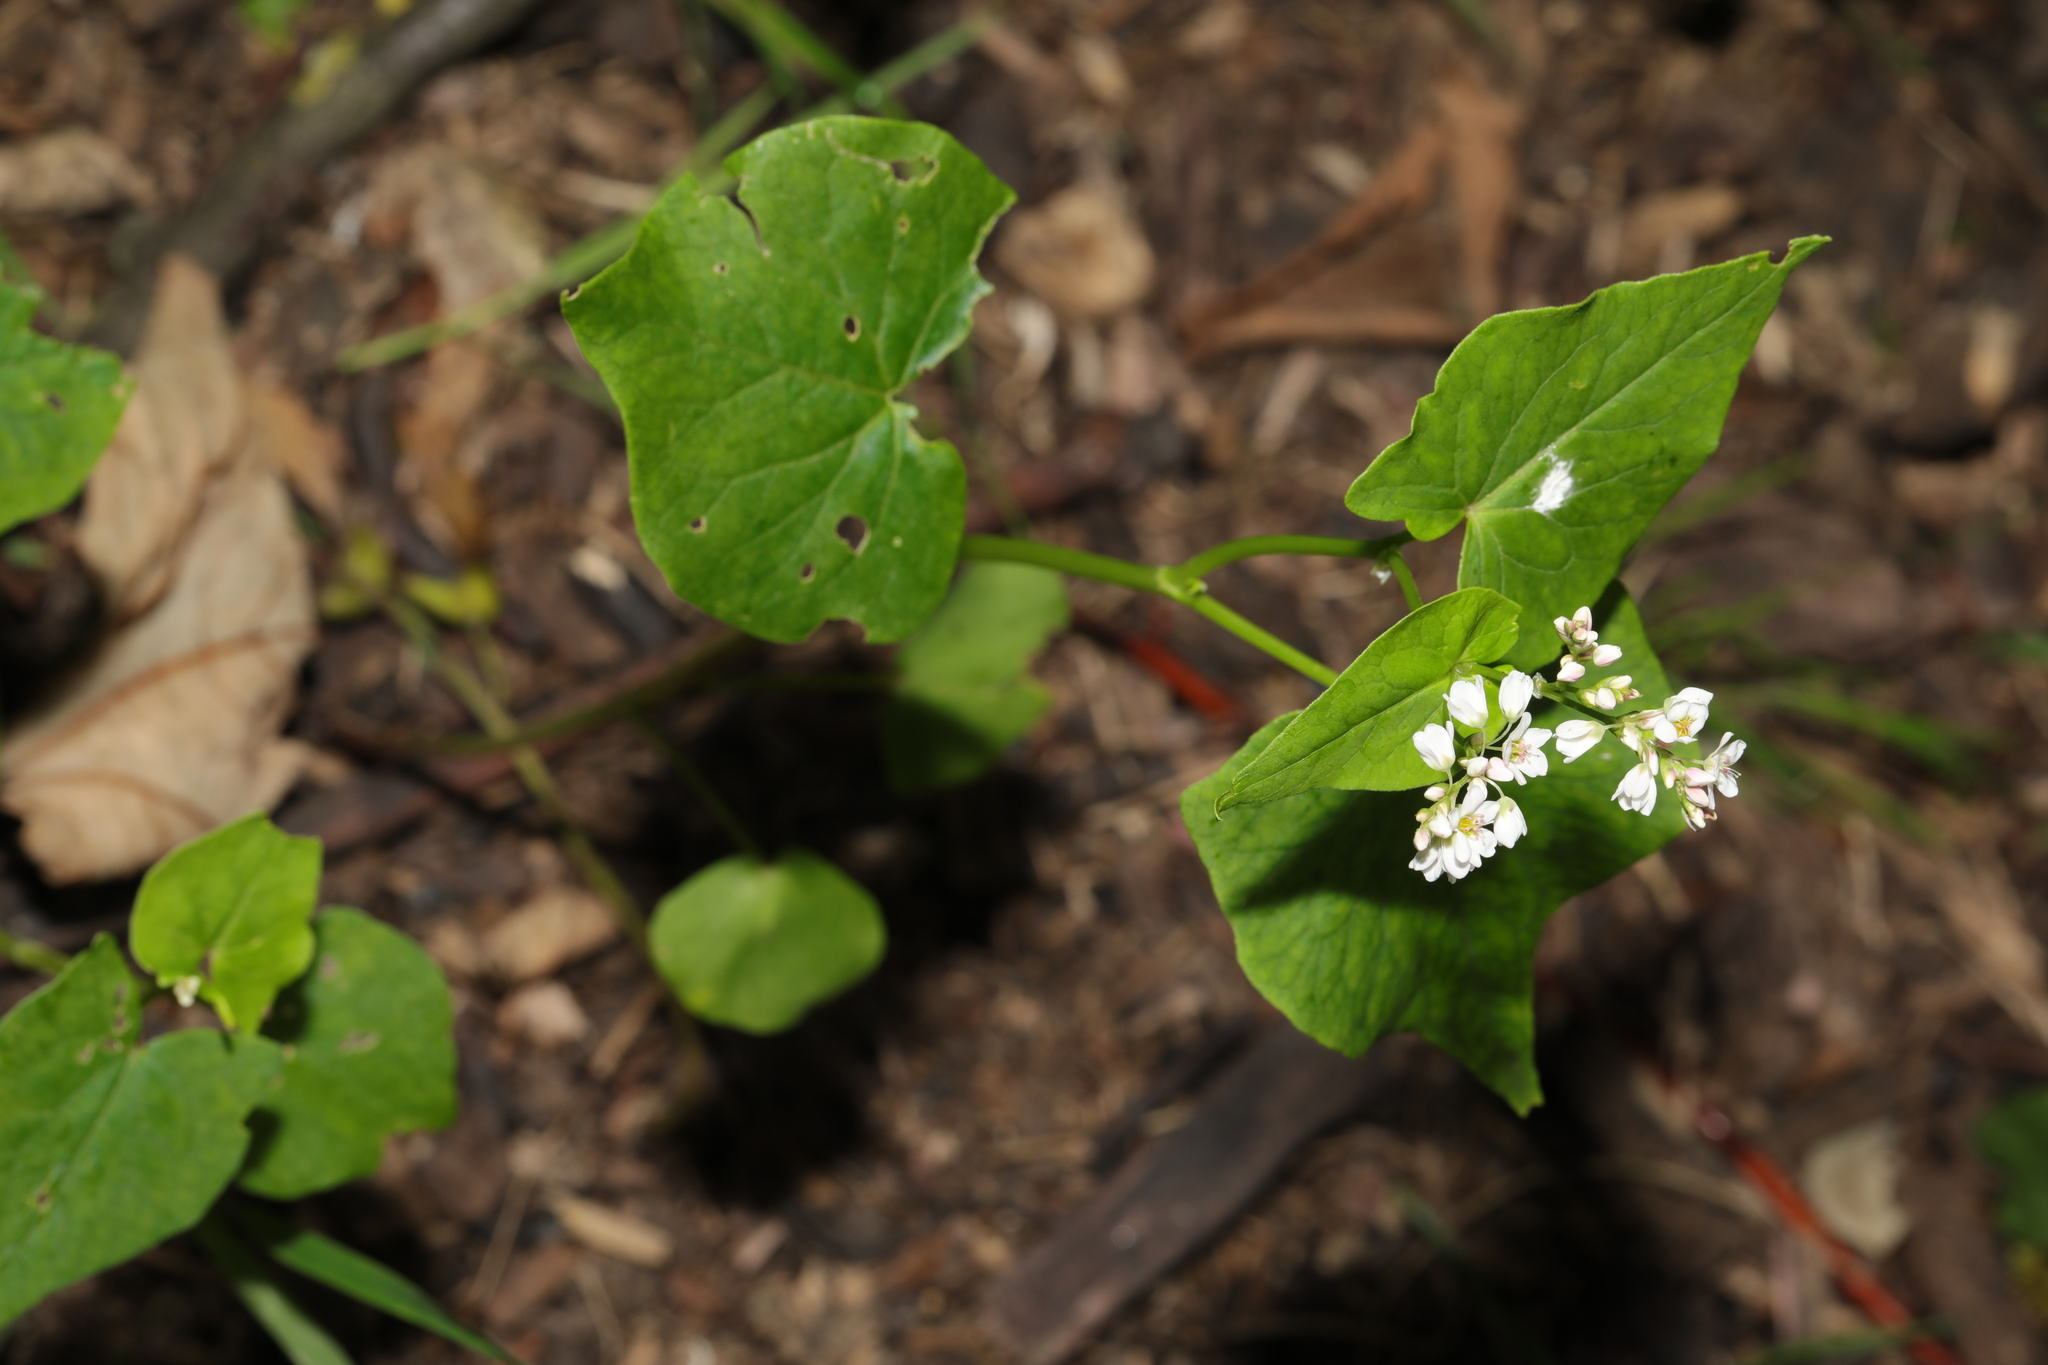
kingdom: Plantae
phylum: Tracheophyta
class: Magnoliopsida
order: Caryophyllales
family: Polygonaceae
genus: Fagopyrum
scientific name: Fagopyrum esculentum
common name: Buckwheat
